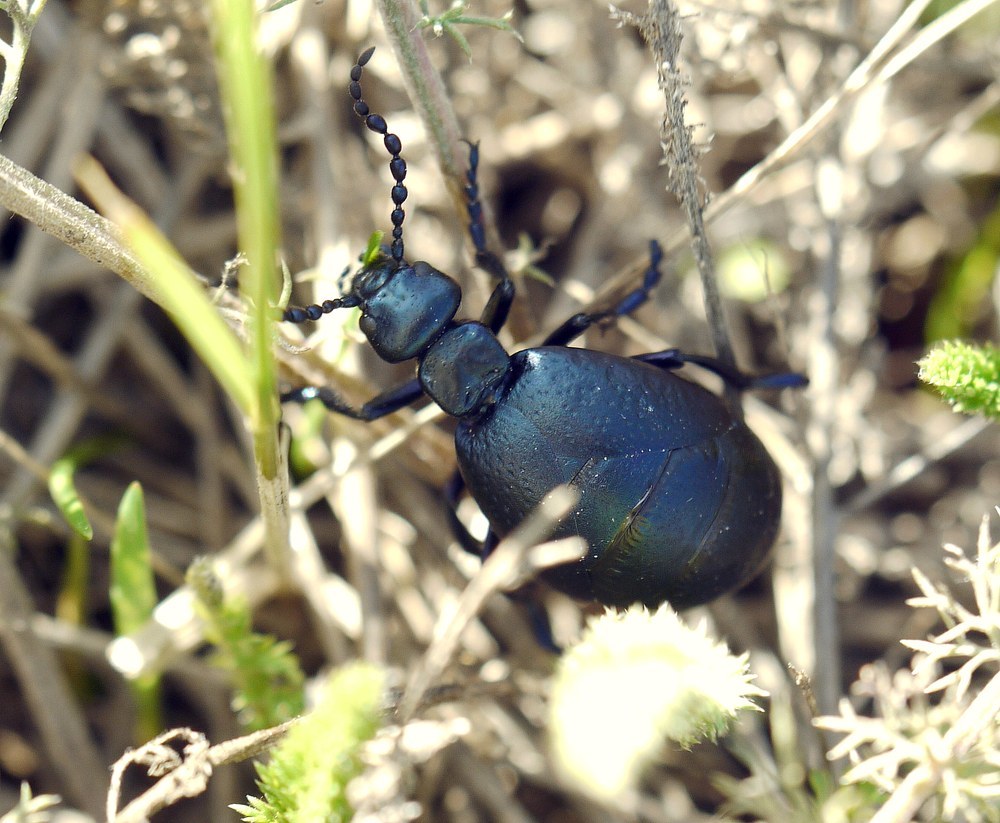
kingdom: Animalia
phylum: Arthropoda
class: Insecta
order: Coleoptera
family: Meloidae
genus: Meloe
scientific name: Meloe autumnalis
